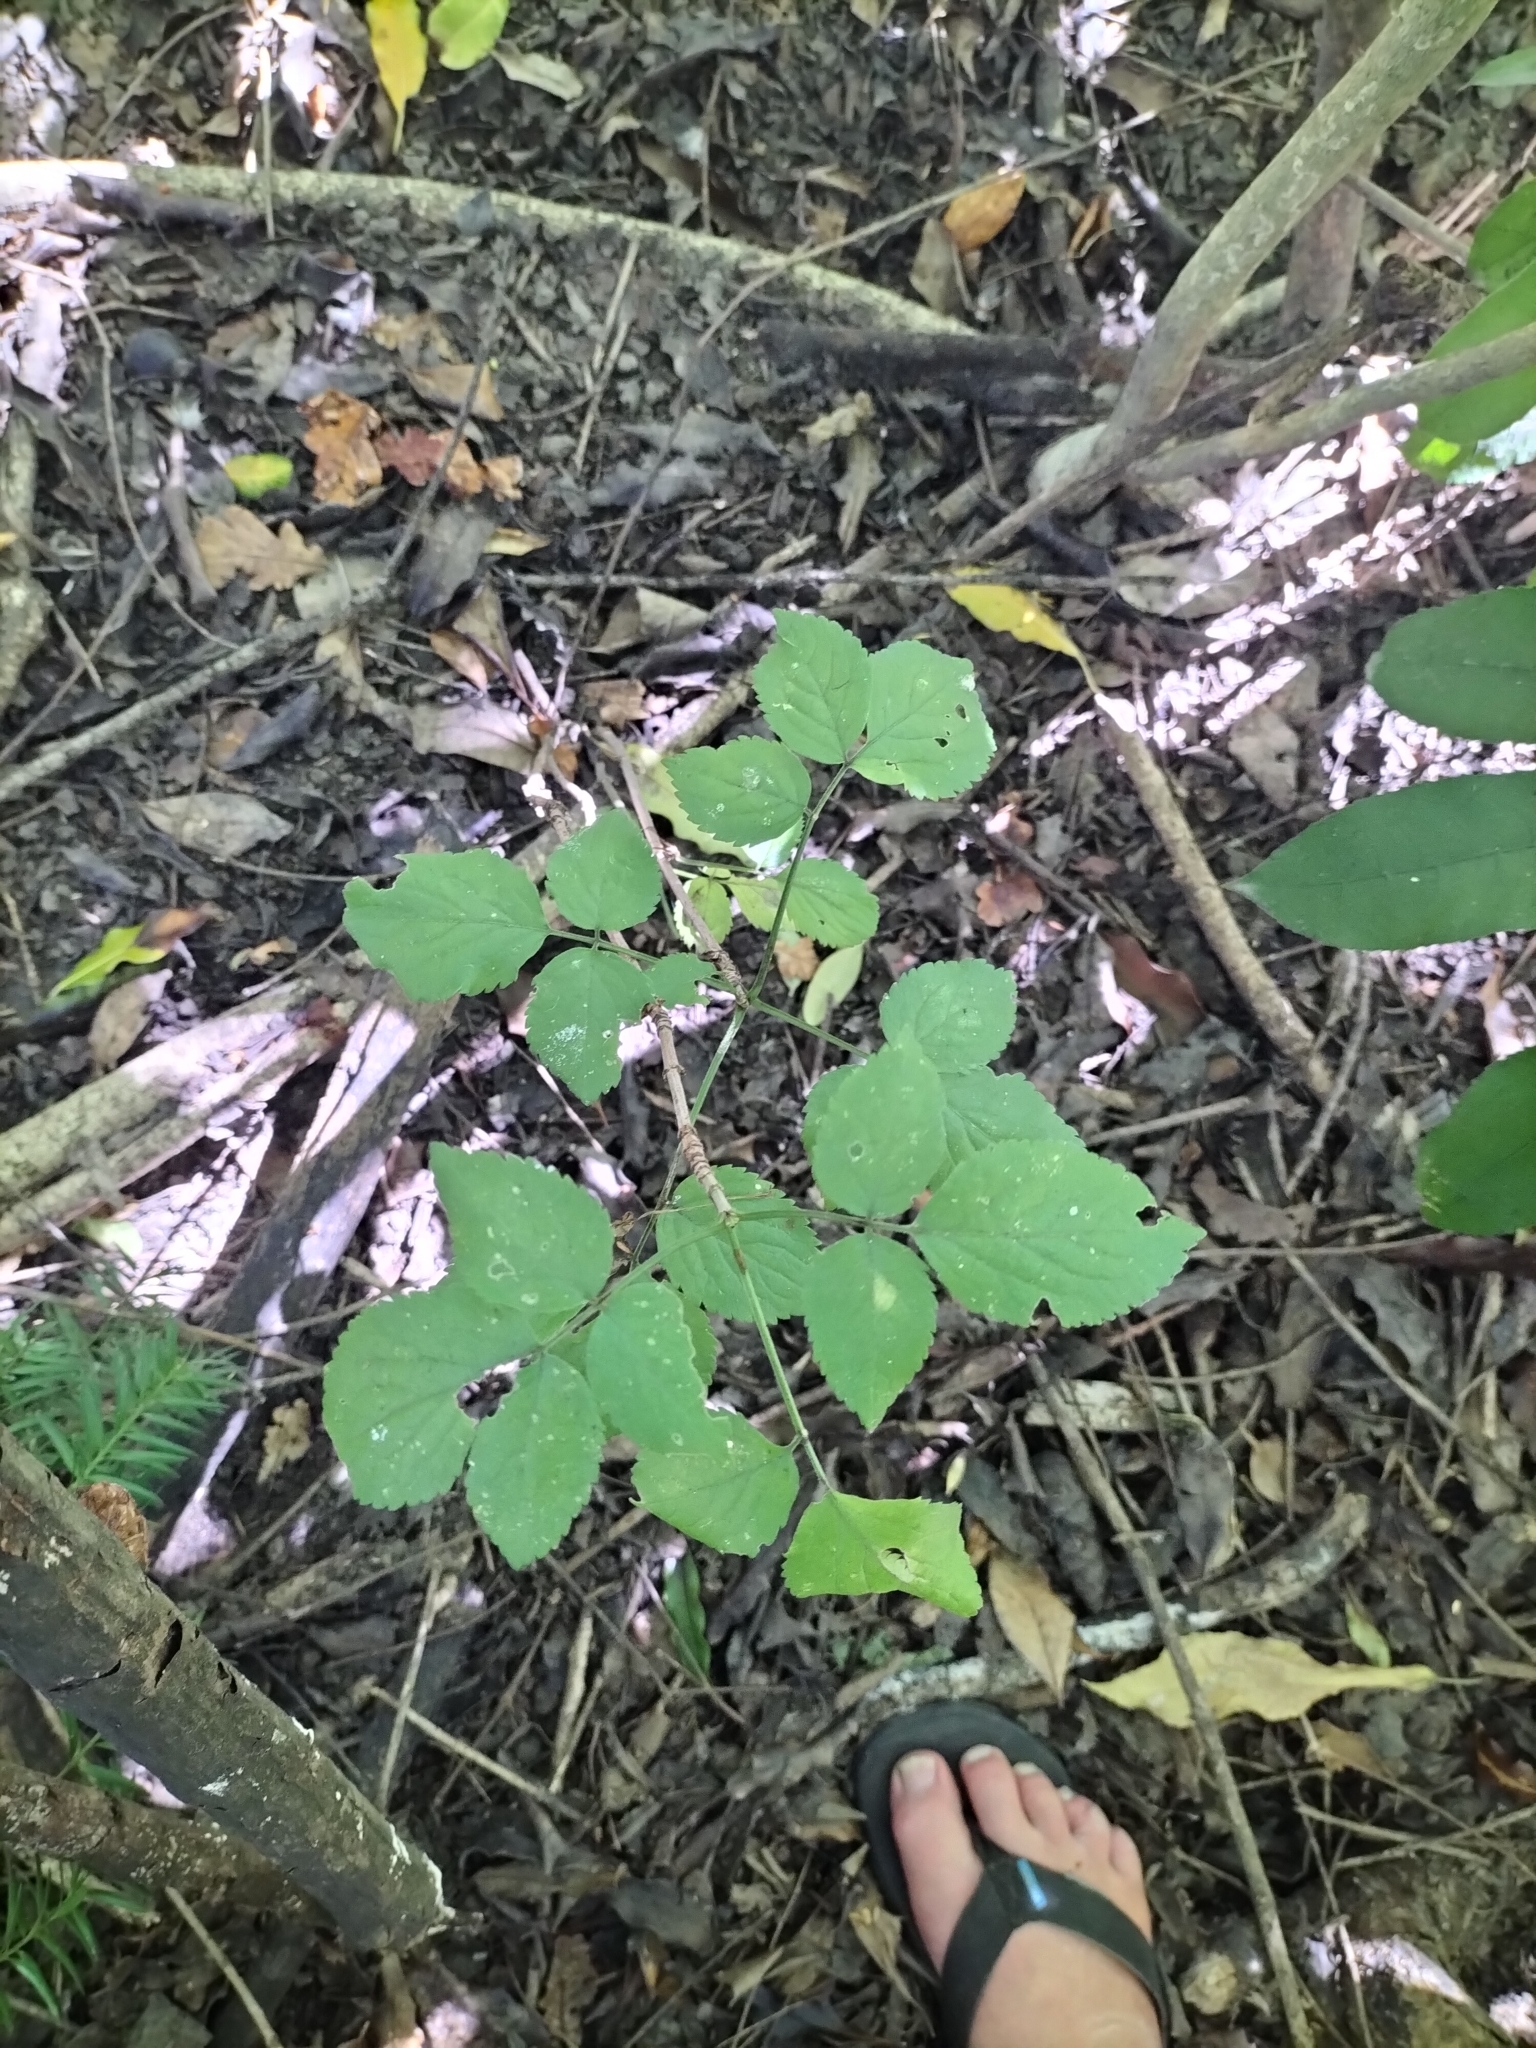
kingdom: Plantae
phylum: Tracheophyta
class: Magnoliopsida
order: Dipsacales
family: Viburnaceae
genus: Sambucus
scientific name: Sambucus nigra
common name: Elder
